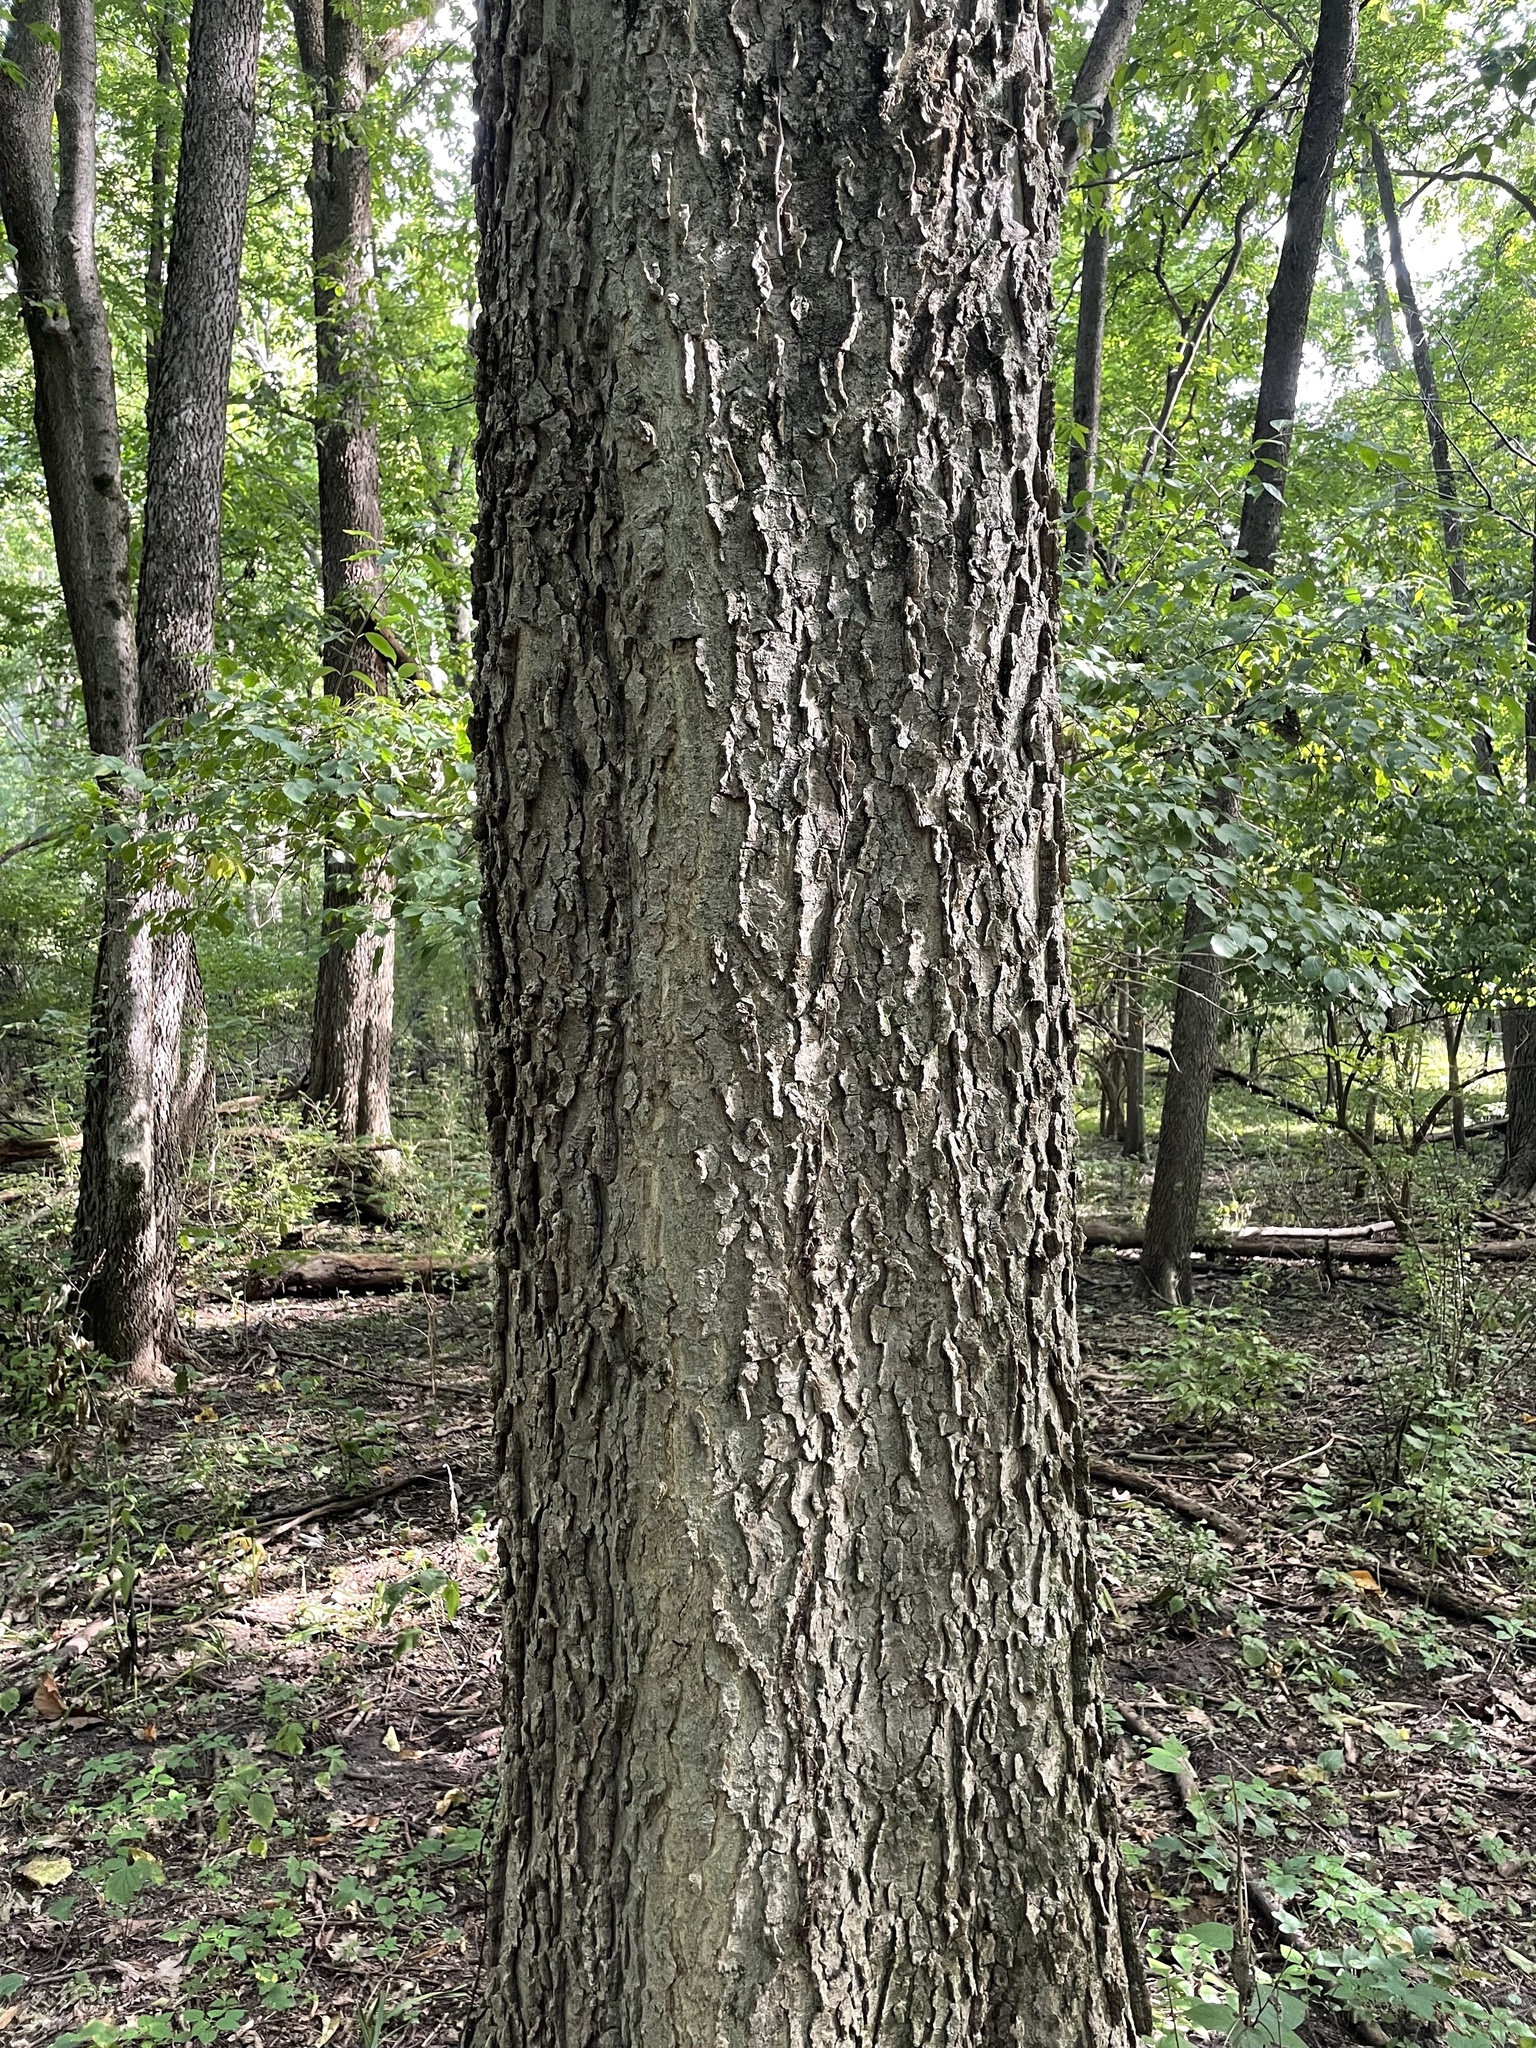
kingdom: Plantae
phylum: Tracheophyta
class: Magnoliopsida
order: Rosales
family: Cannabaceae
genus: Celtis
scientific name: Celtis occidentalis
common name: Common hackberry
